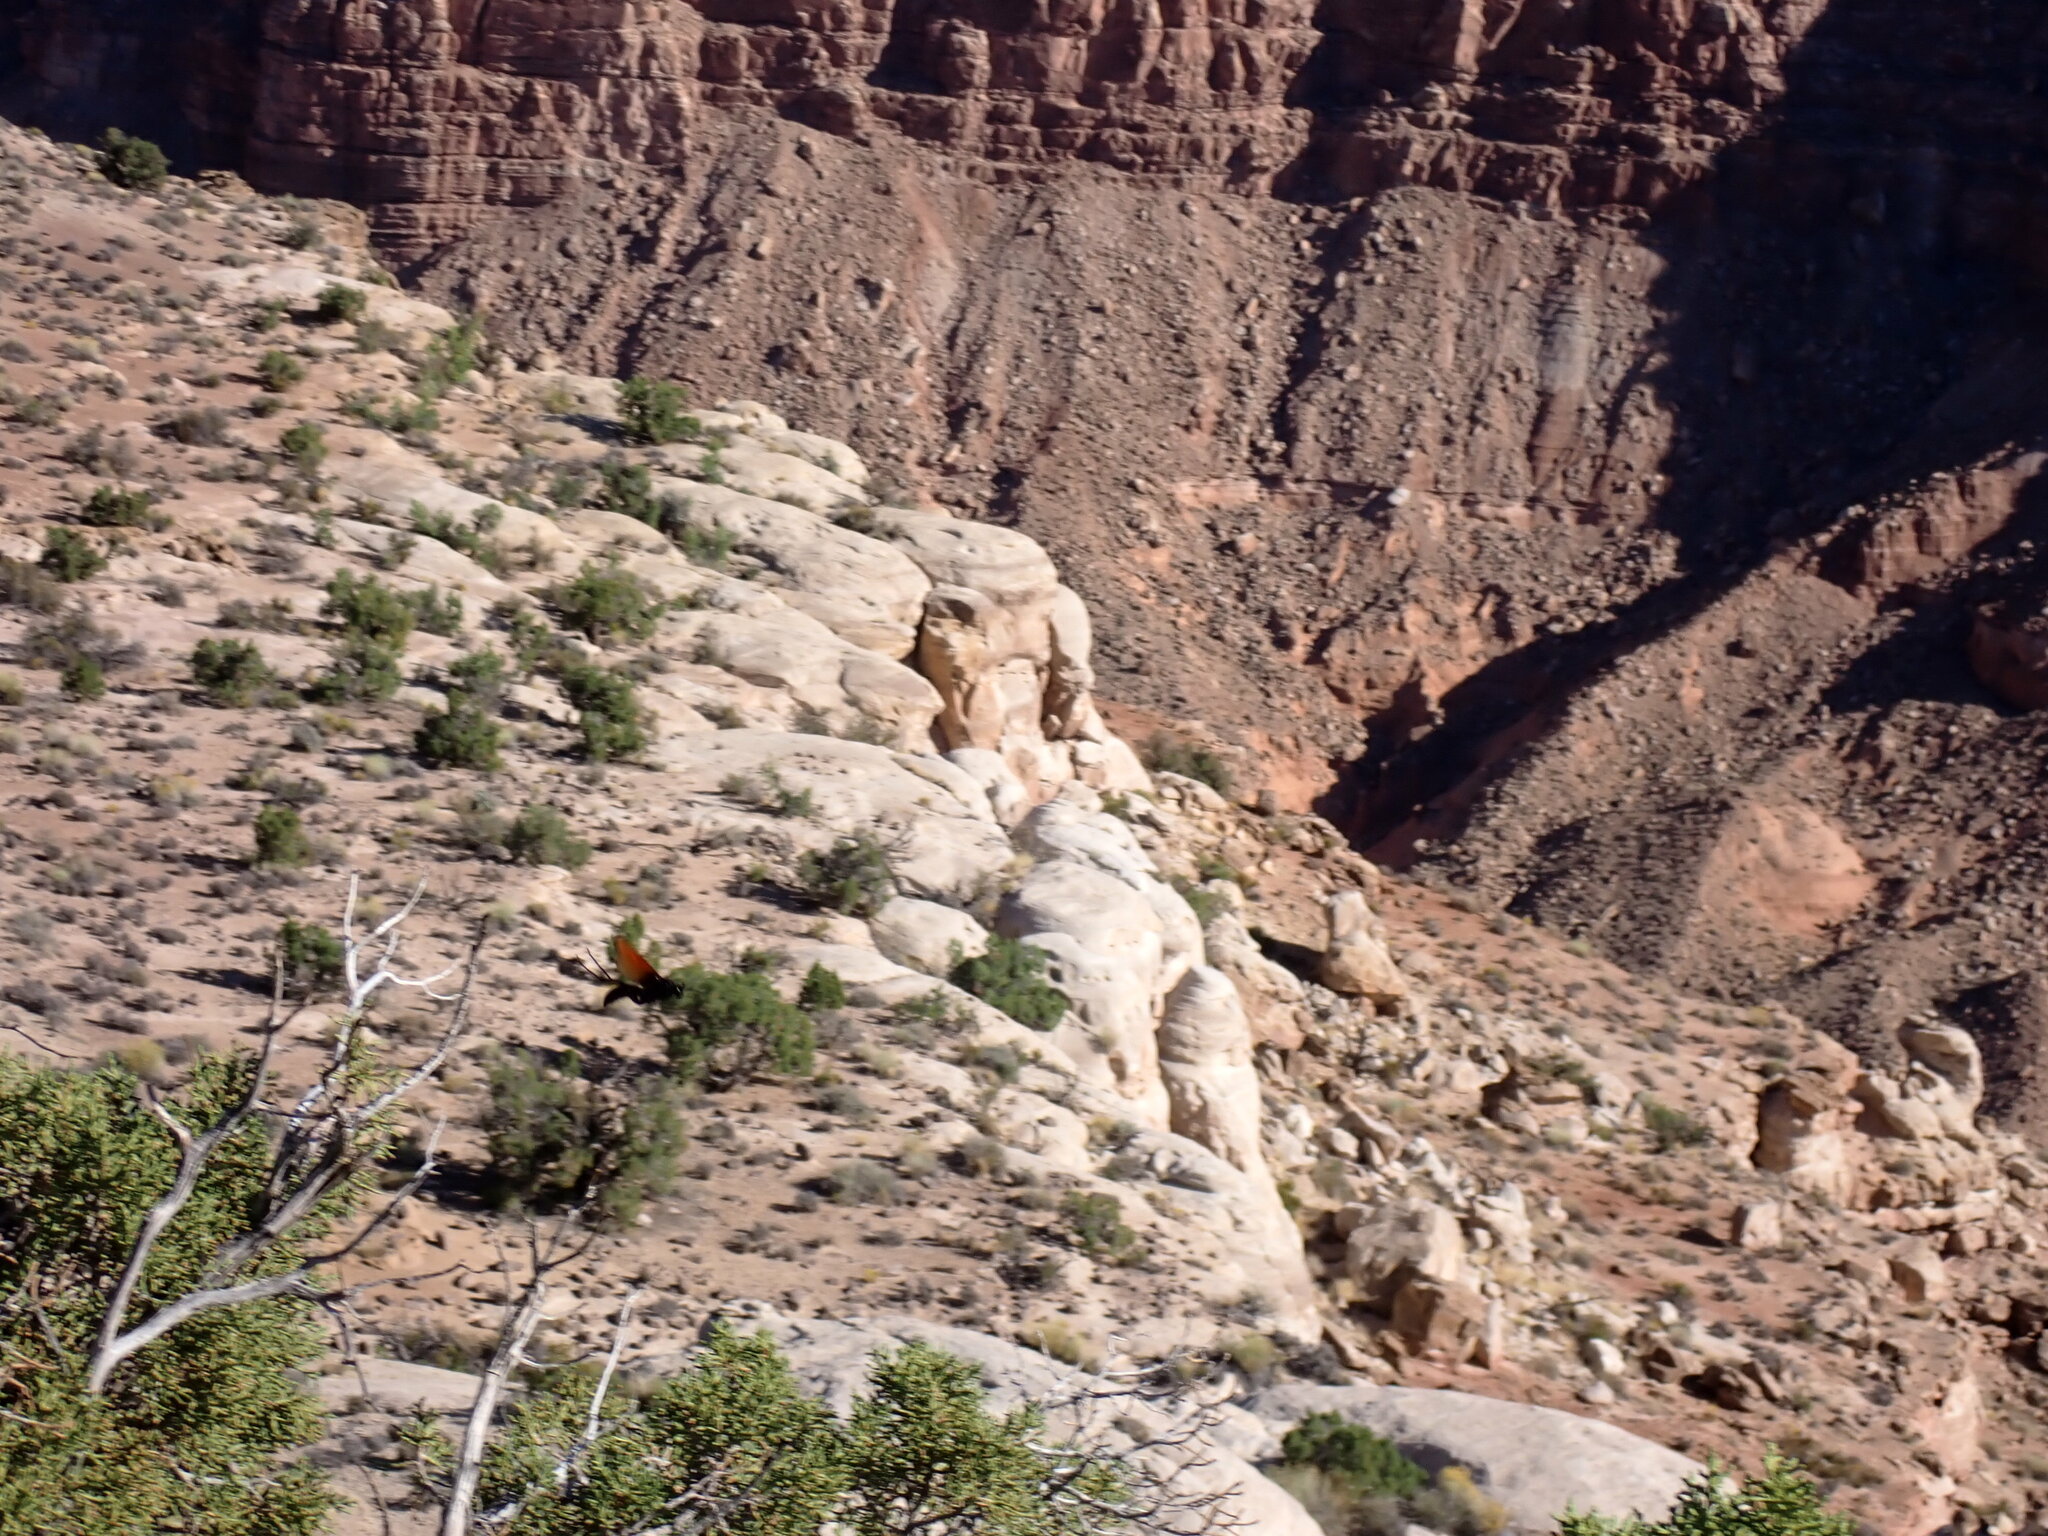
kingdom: Animalia
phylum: Arthropoda
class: Insecta
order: Hymenoptera
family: Pompilidae
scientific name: Pompilidae
